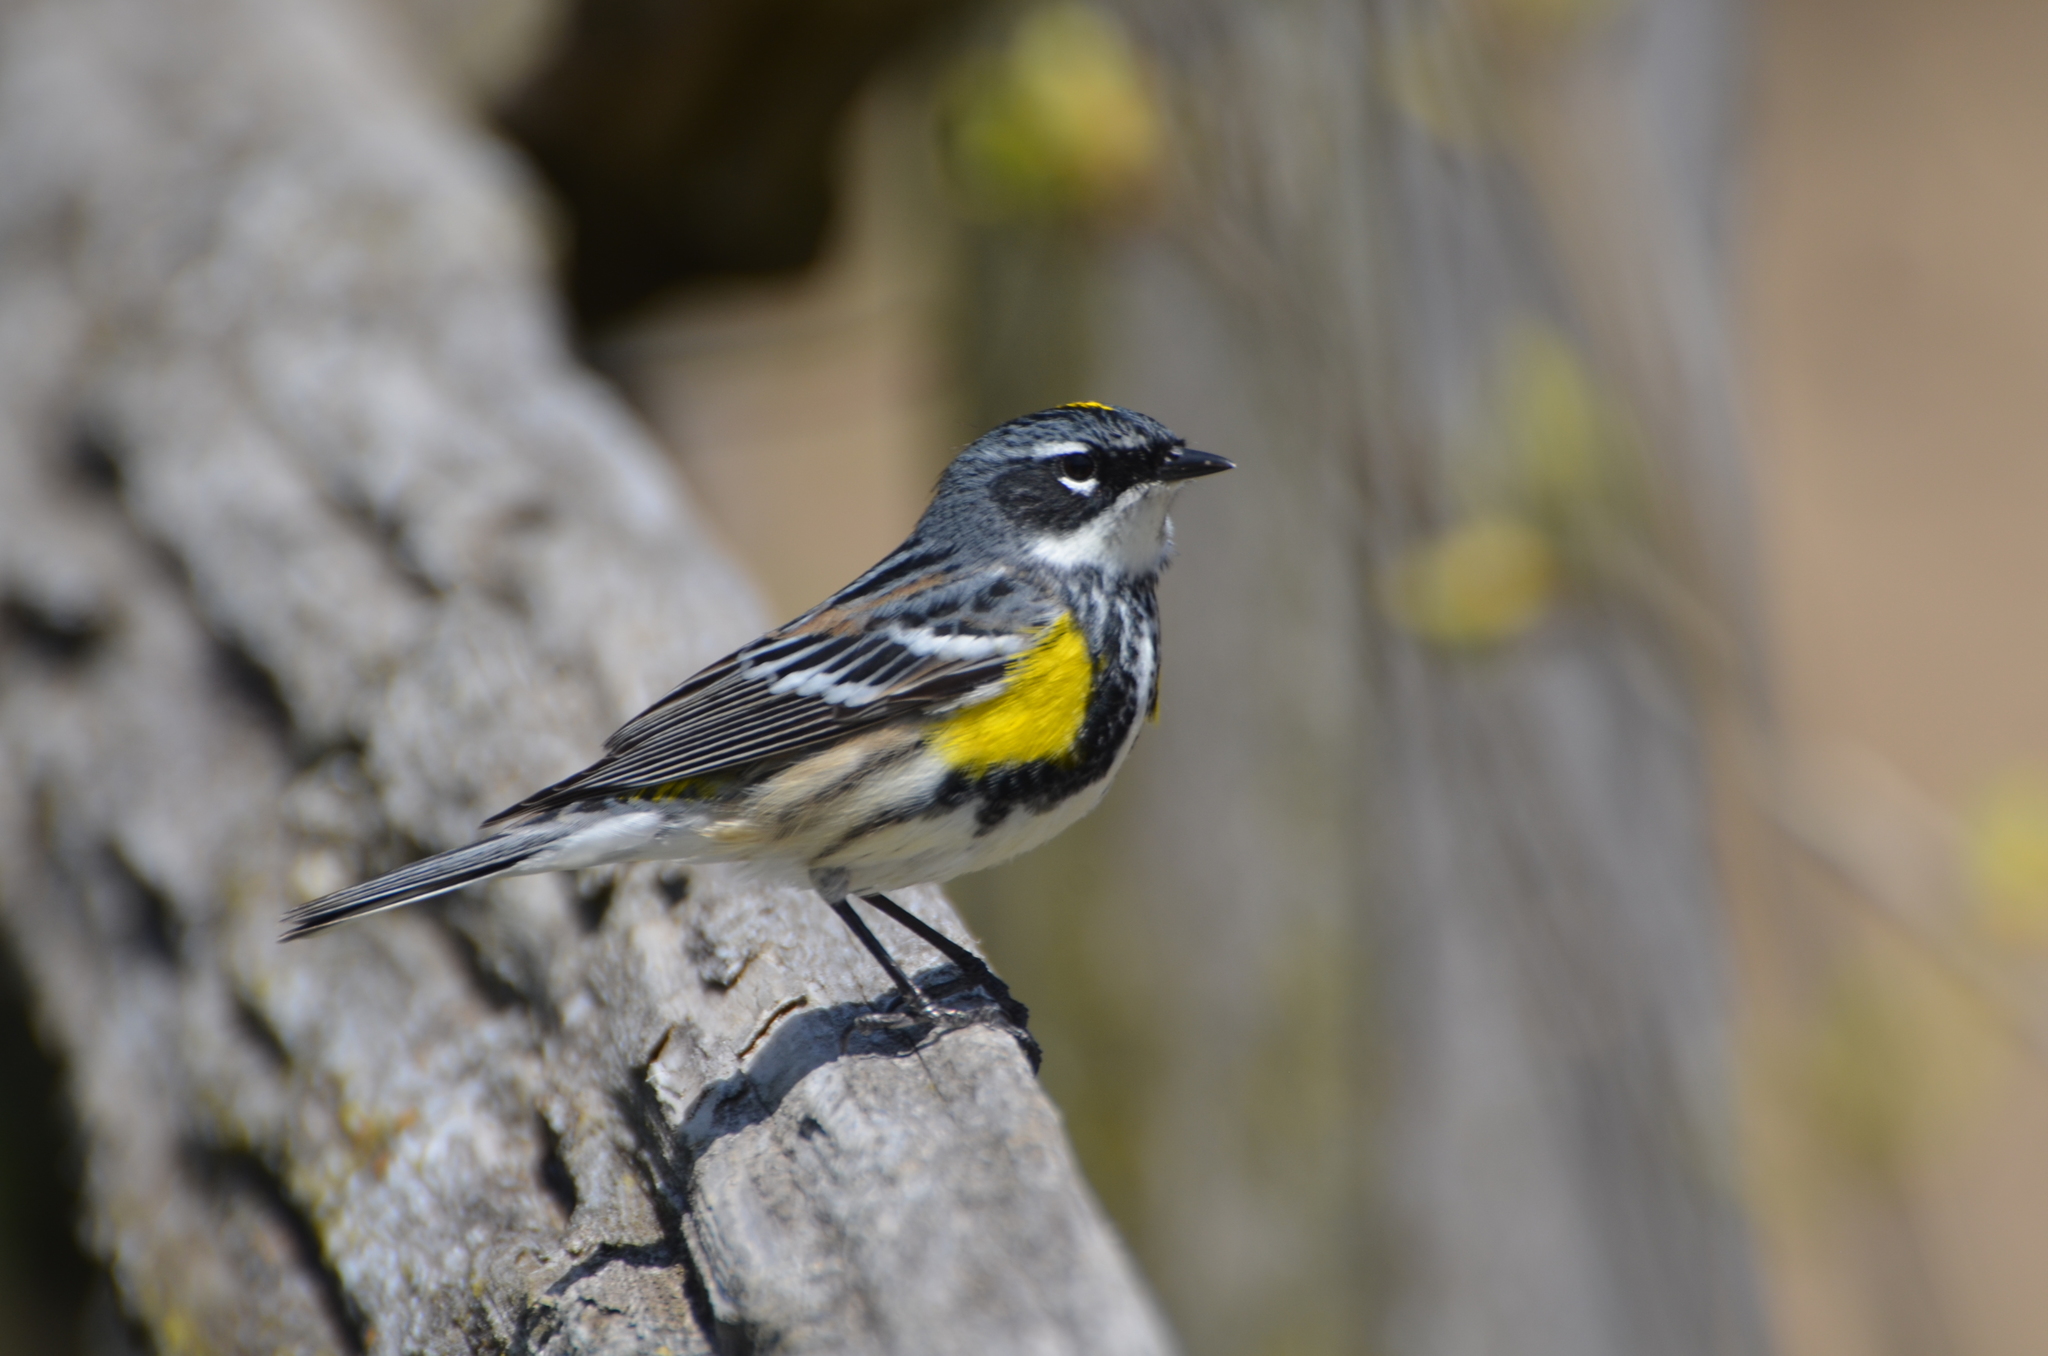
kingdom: Animalia
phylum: Chordata
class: Aves
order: Passeriformes
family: Parulidae
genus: Setophaga
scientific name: Setophaga coronata
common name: Myrtle warbler
